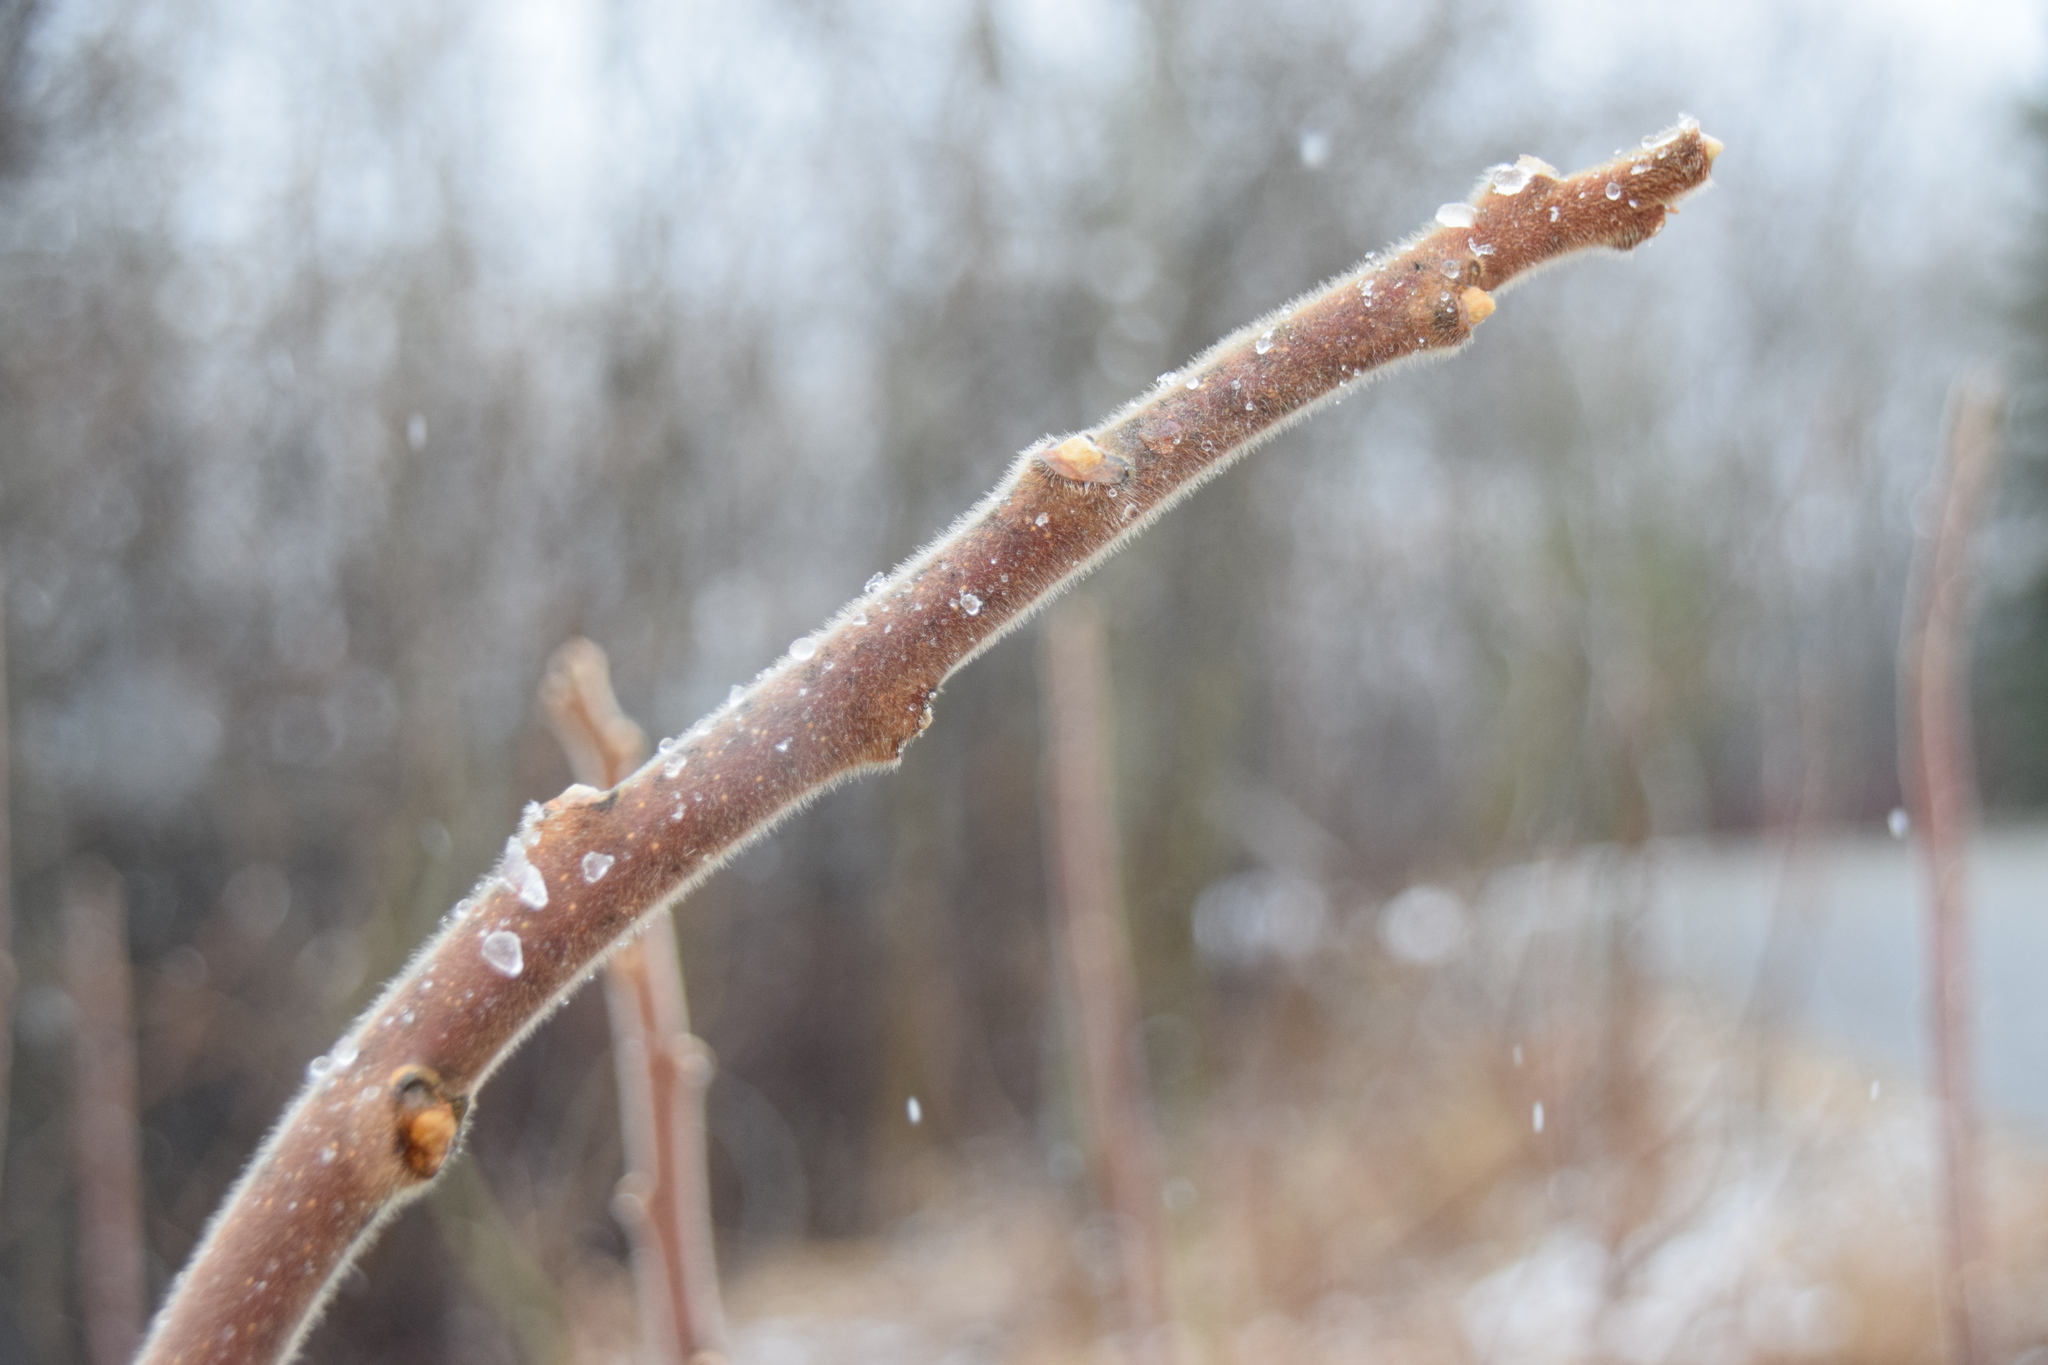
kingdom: Plantae
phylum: Tracheophyta
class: Magnoliopsida
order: Sapindales
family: Anacardiaceae
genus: Rhus
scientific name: Rhus typhina
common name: Staghorn sumac
